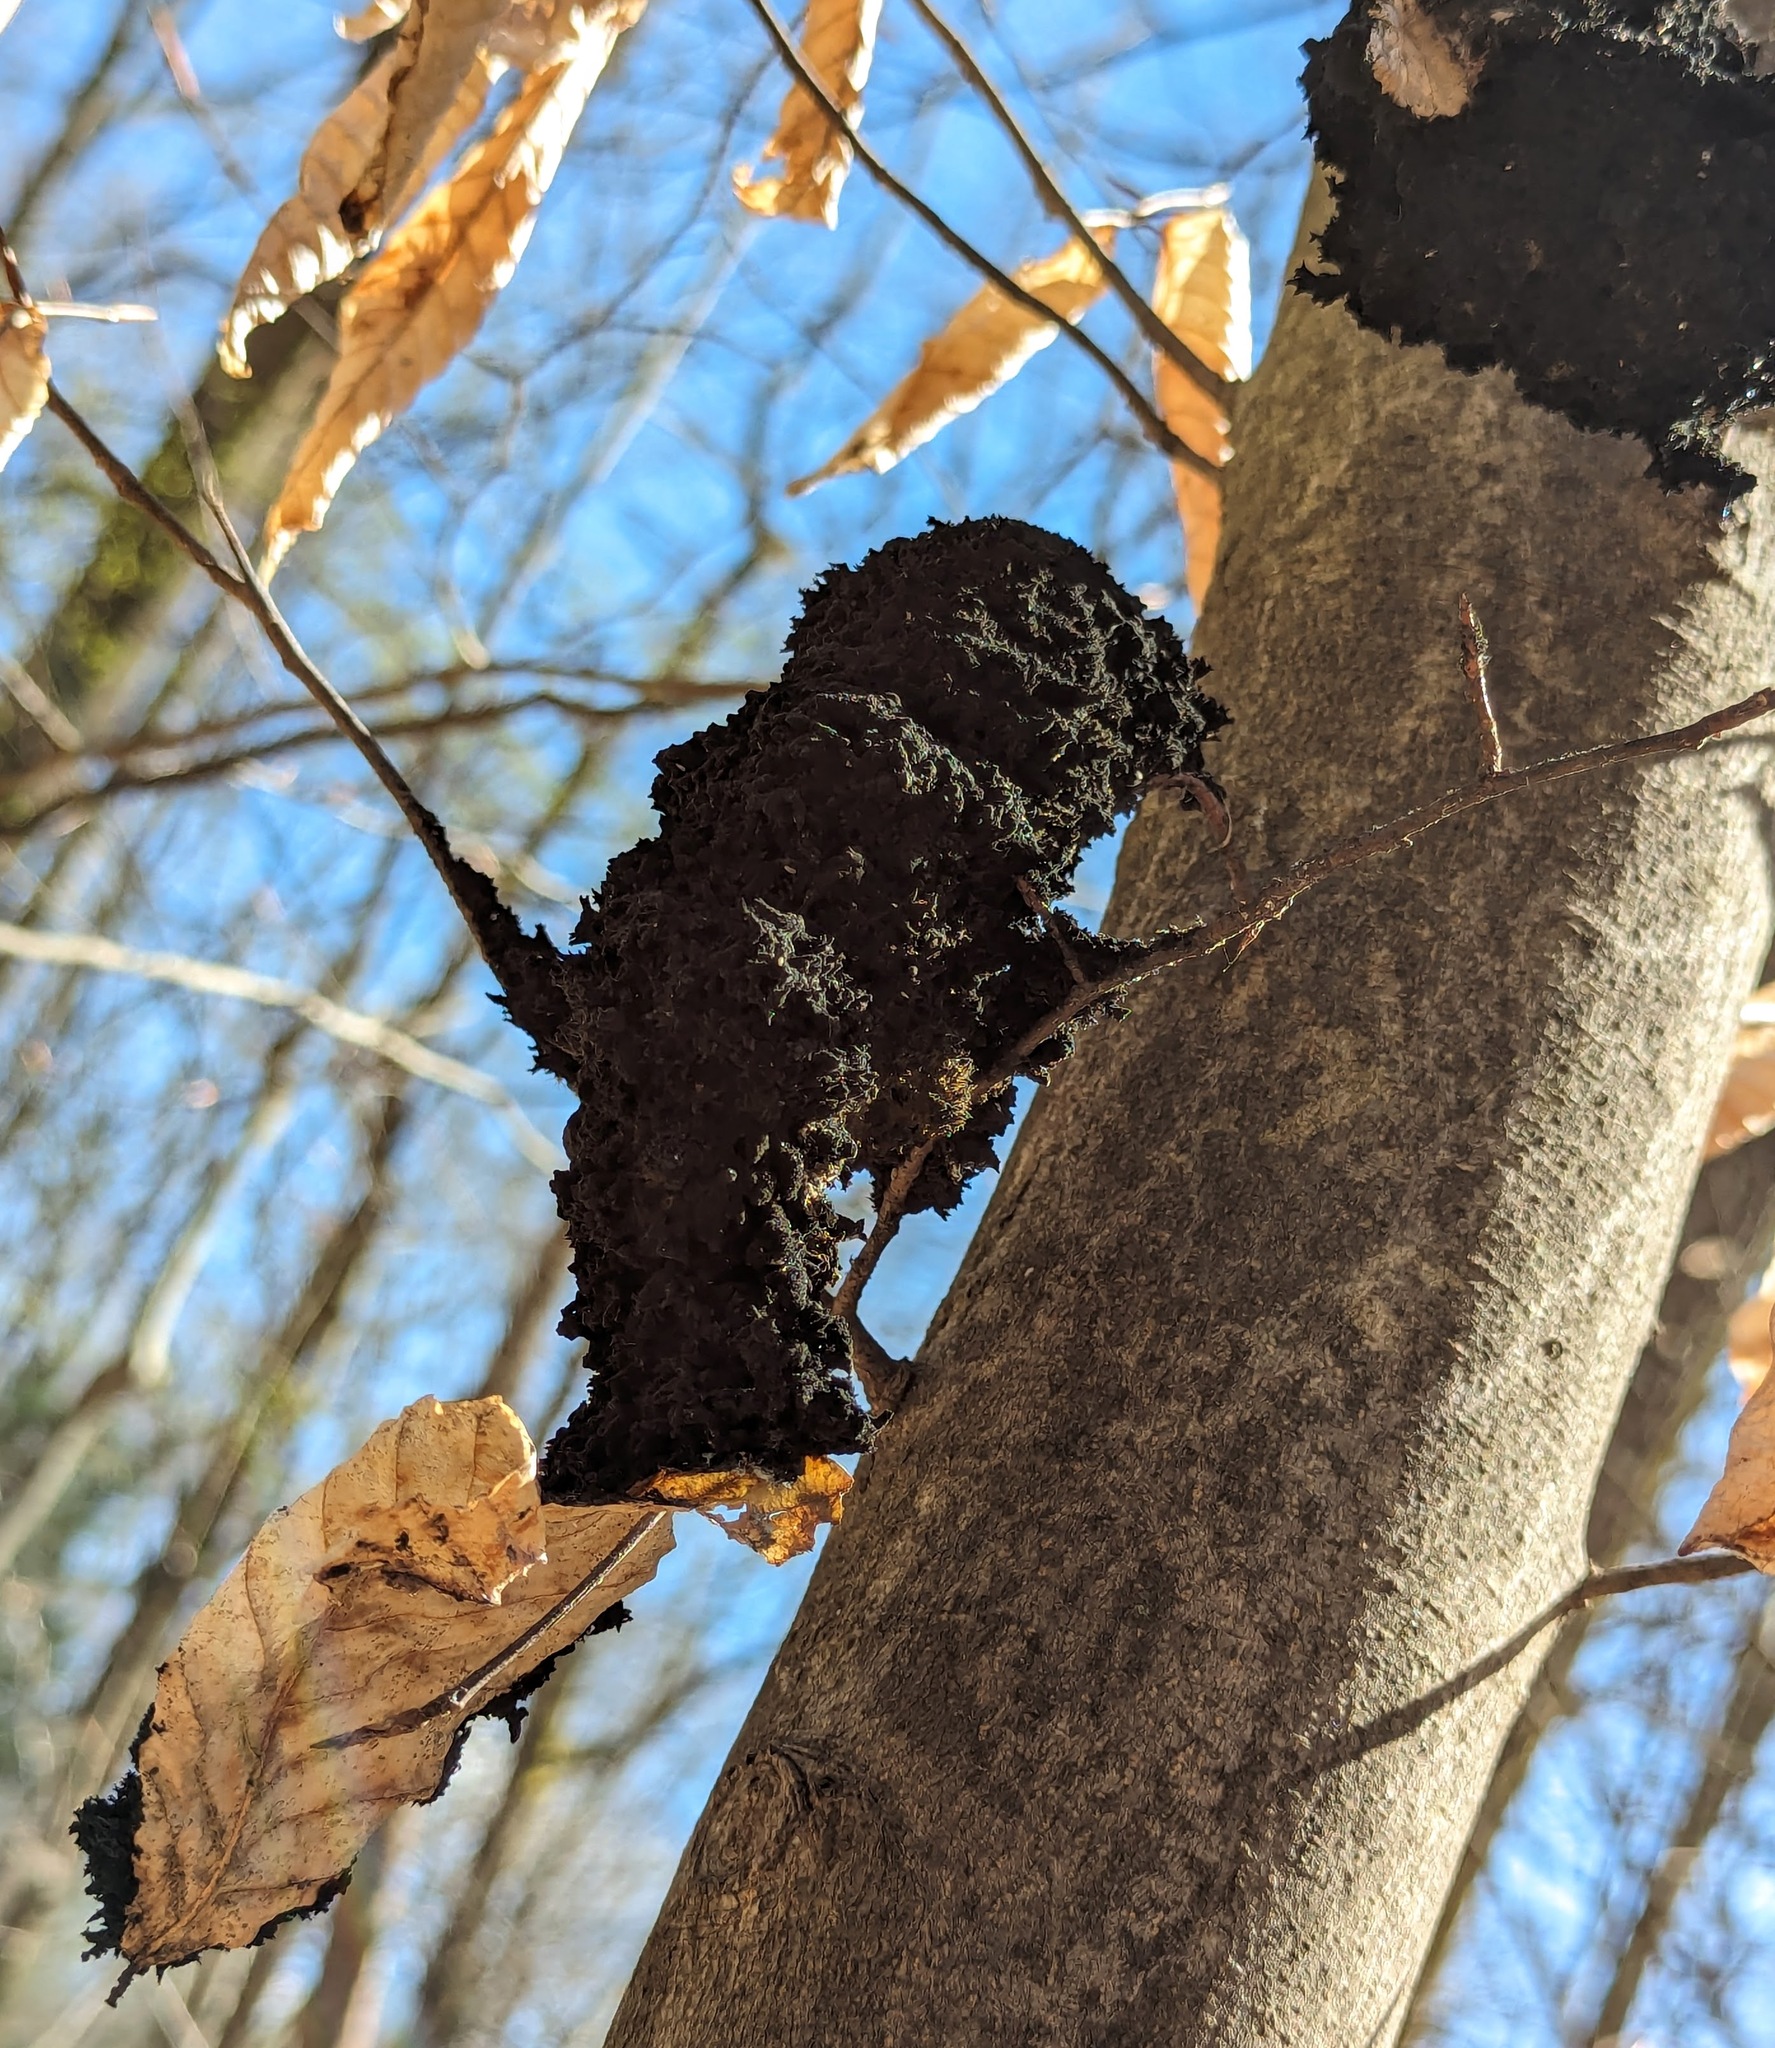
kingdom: Fungi
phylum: Ascomycota
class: Dothideomycetes
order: Capnodiales
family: Capnodiaceae
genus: Scorias
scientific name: Scorias spongiosa
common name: Black sooty mold
